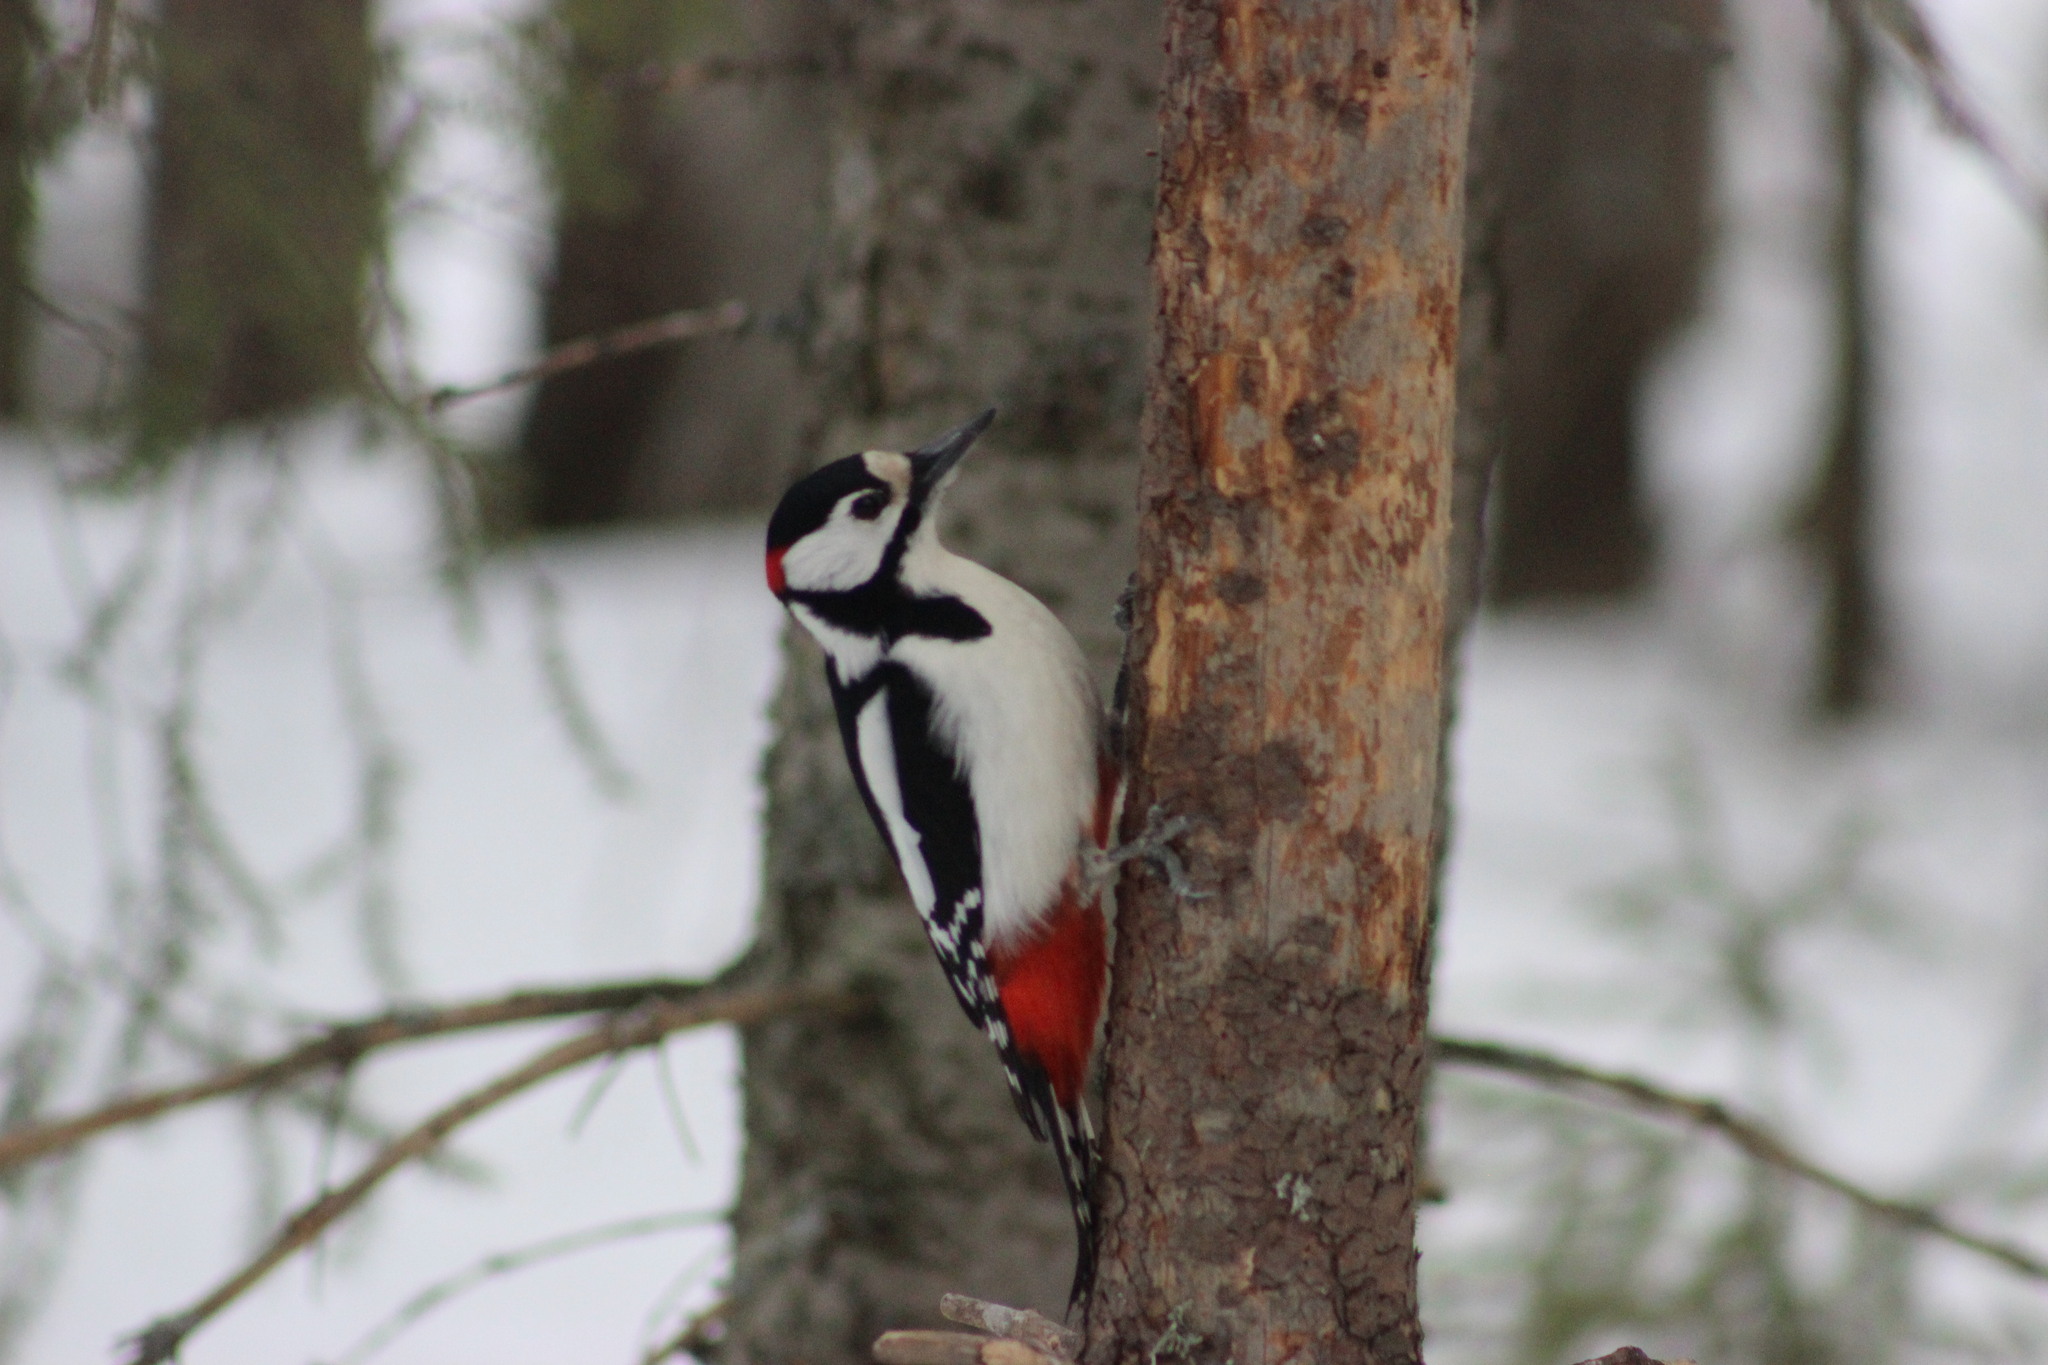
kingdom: Animalia
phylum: Chordata
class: Aves
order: Piciformes
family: Picidae
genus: Dendrocopos
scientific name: Dendrocopos major
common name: Great spotted woodpecker
